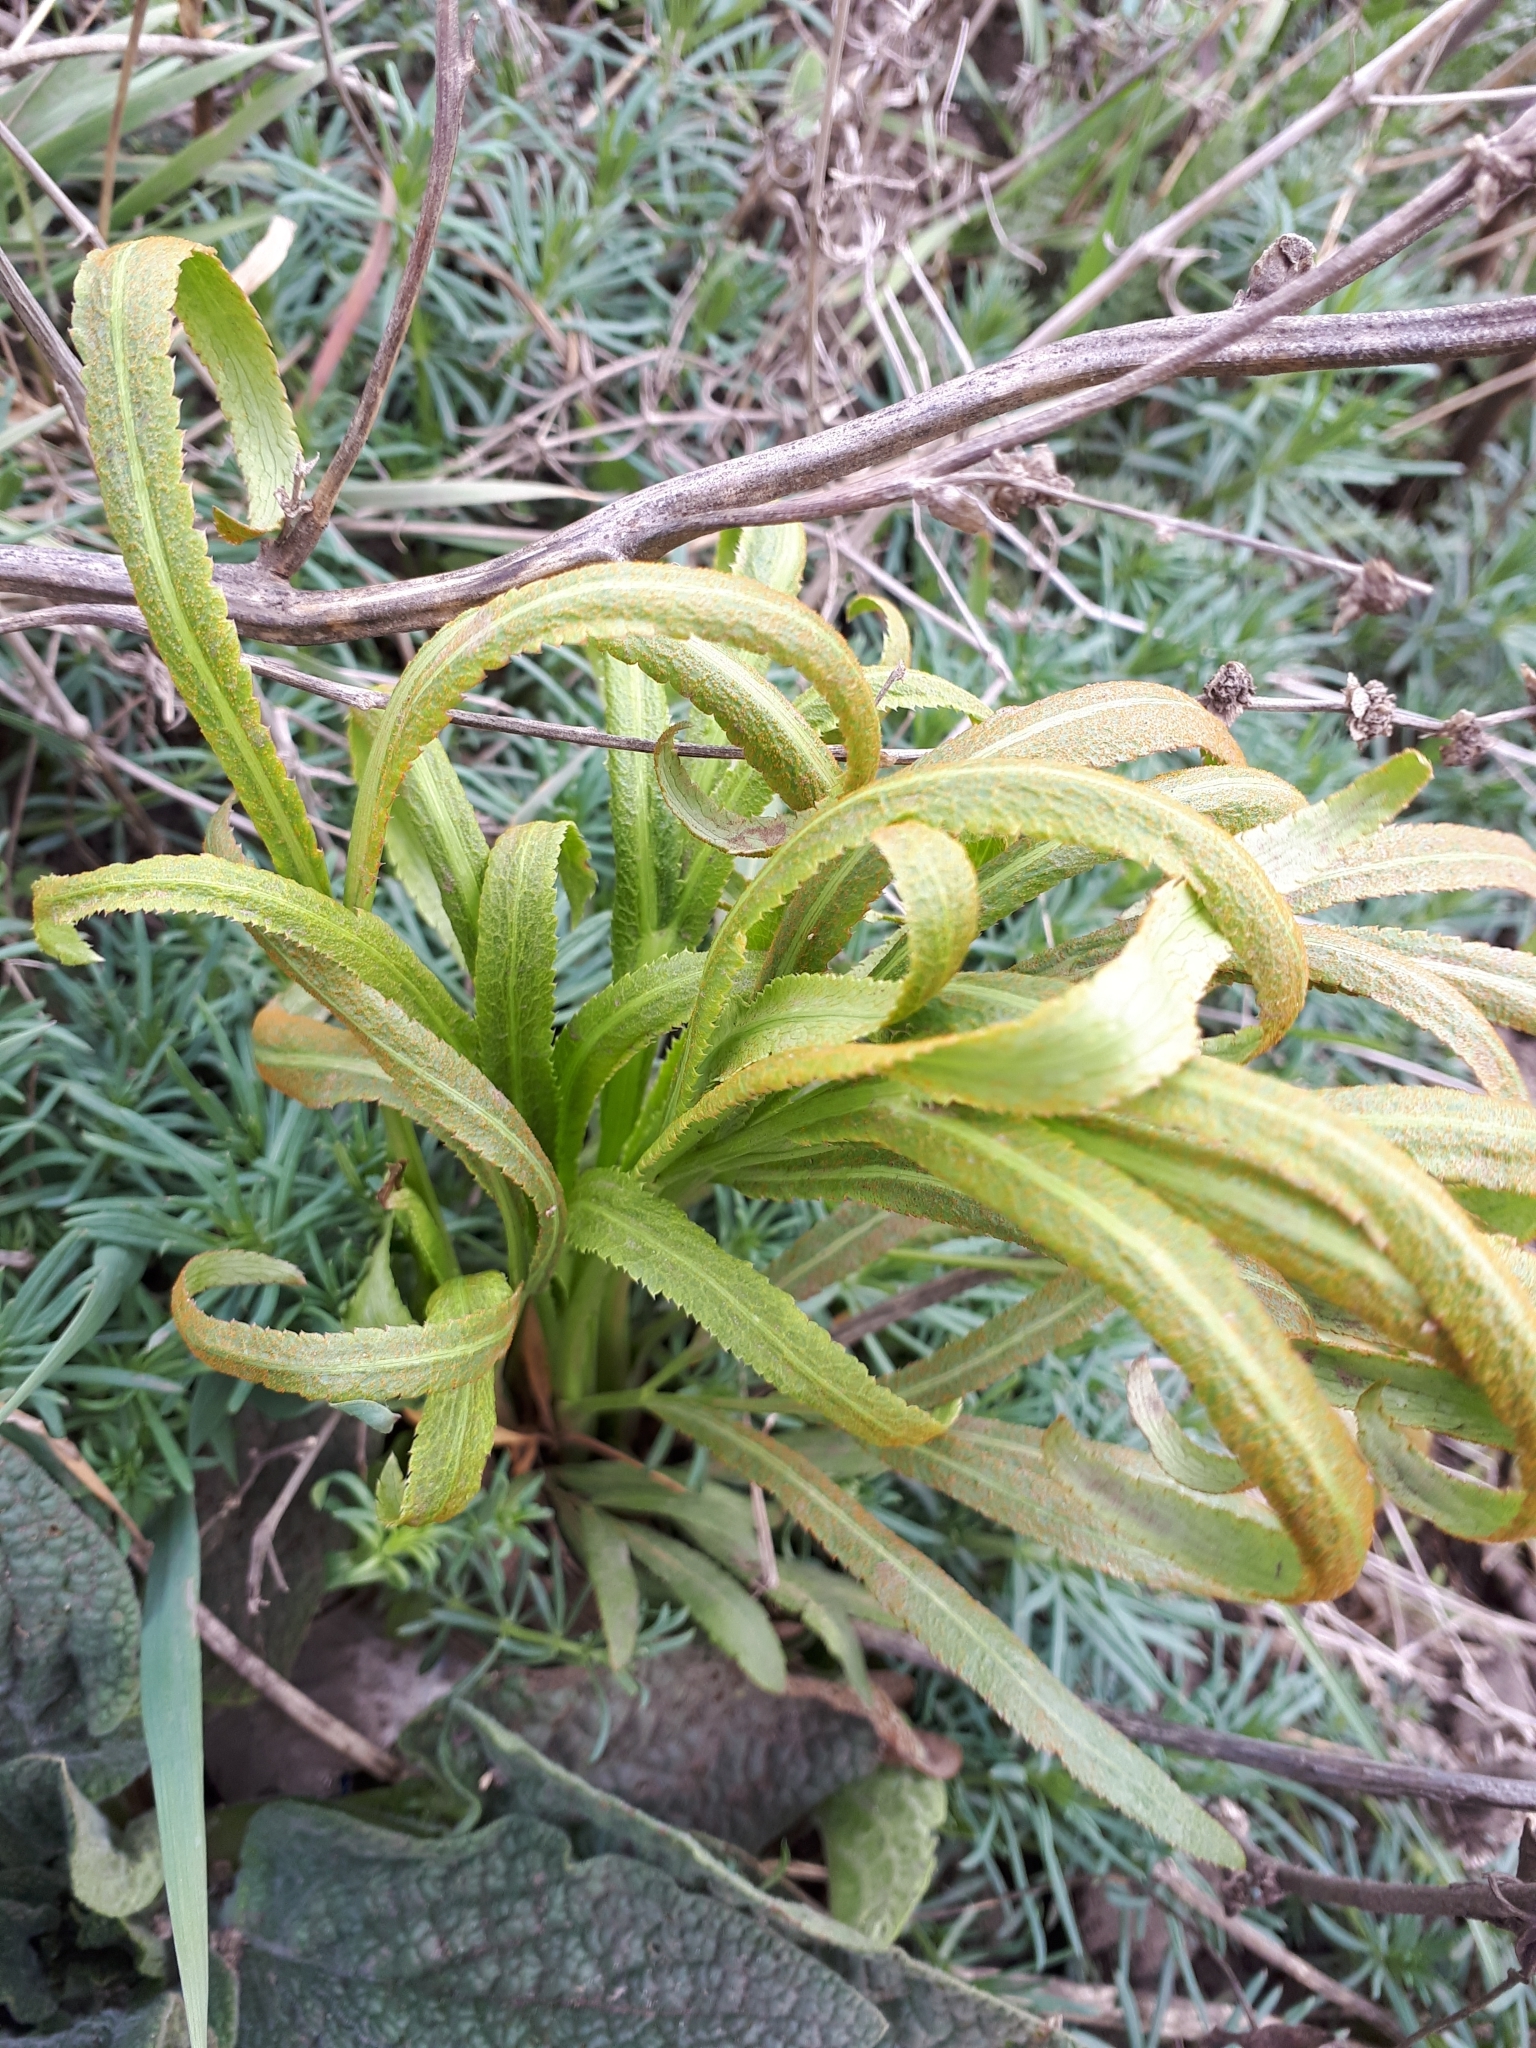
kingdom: Plantae
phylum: Tracheophyta
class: Magnoliopsida
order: Apiales
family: Apiaceae
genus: Falcaria
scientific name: Falcaria vulgaris
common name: Longleaf
